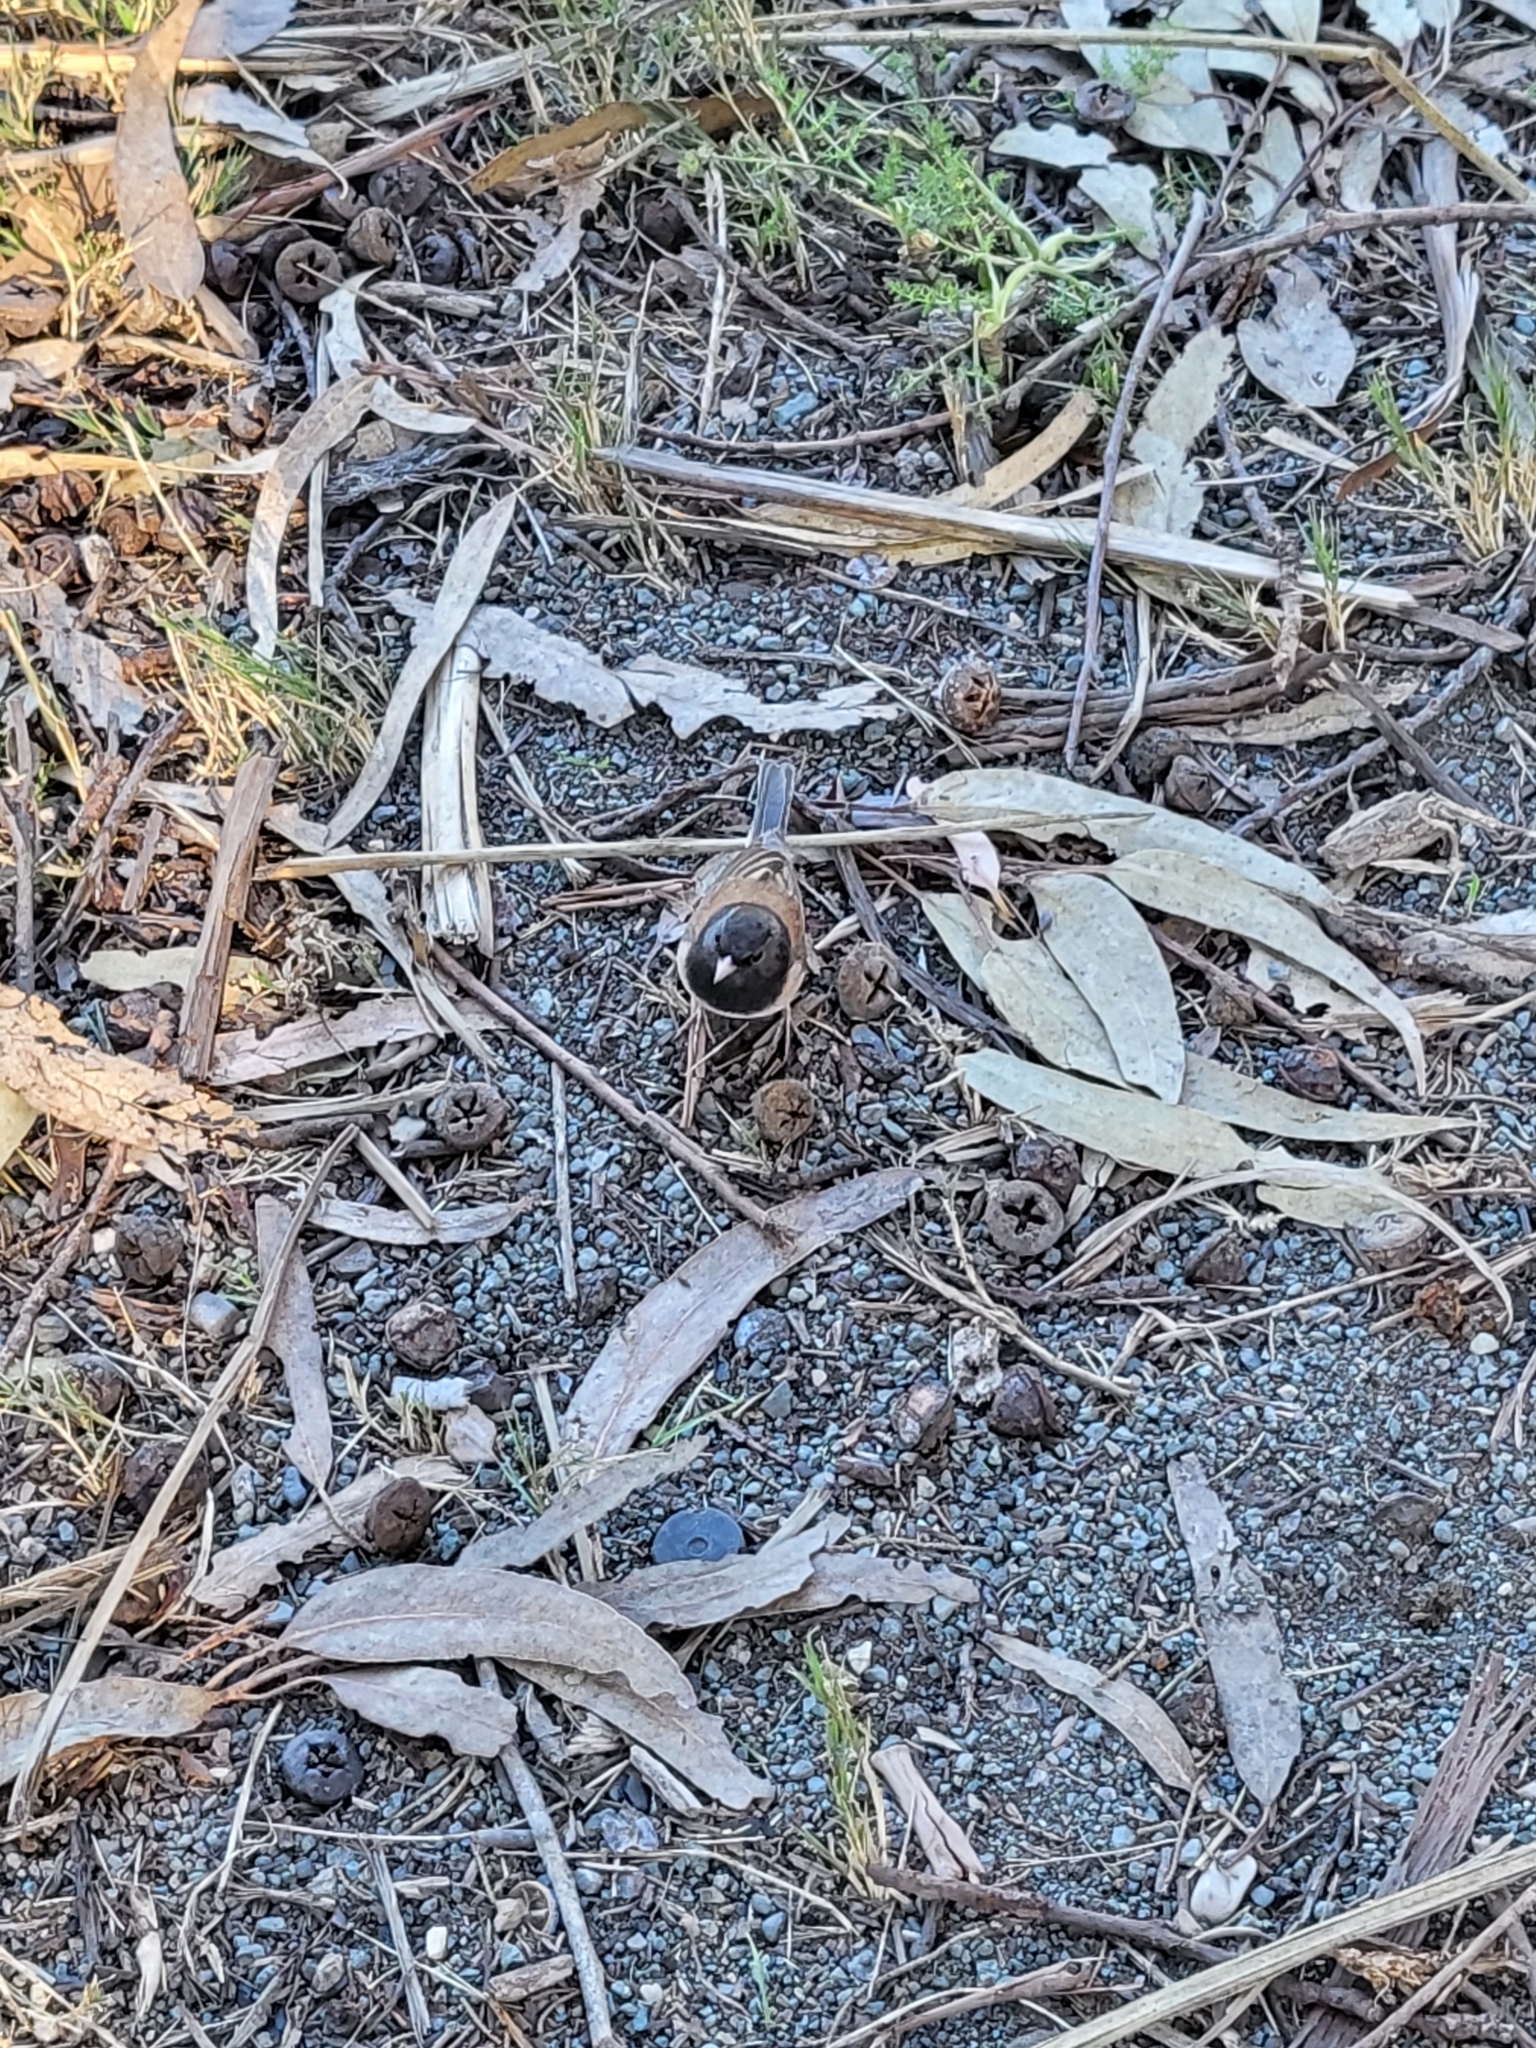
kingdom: Animalia
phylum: Chordata
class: Aves
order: Passeriformes
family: Passerellidae
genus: Junco
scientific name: Junco hyemalis
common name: Dark-eyed junco
